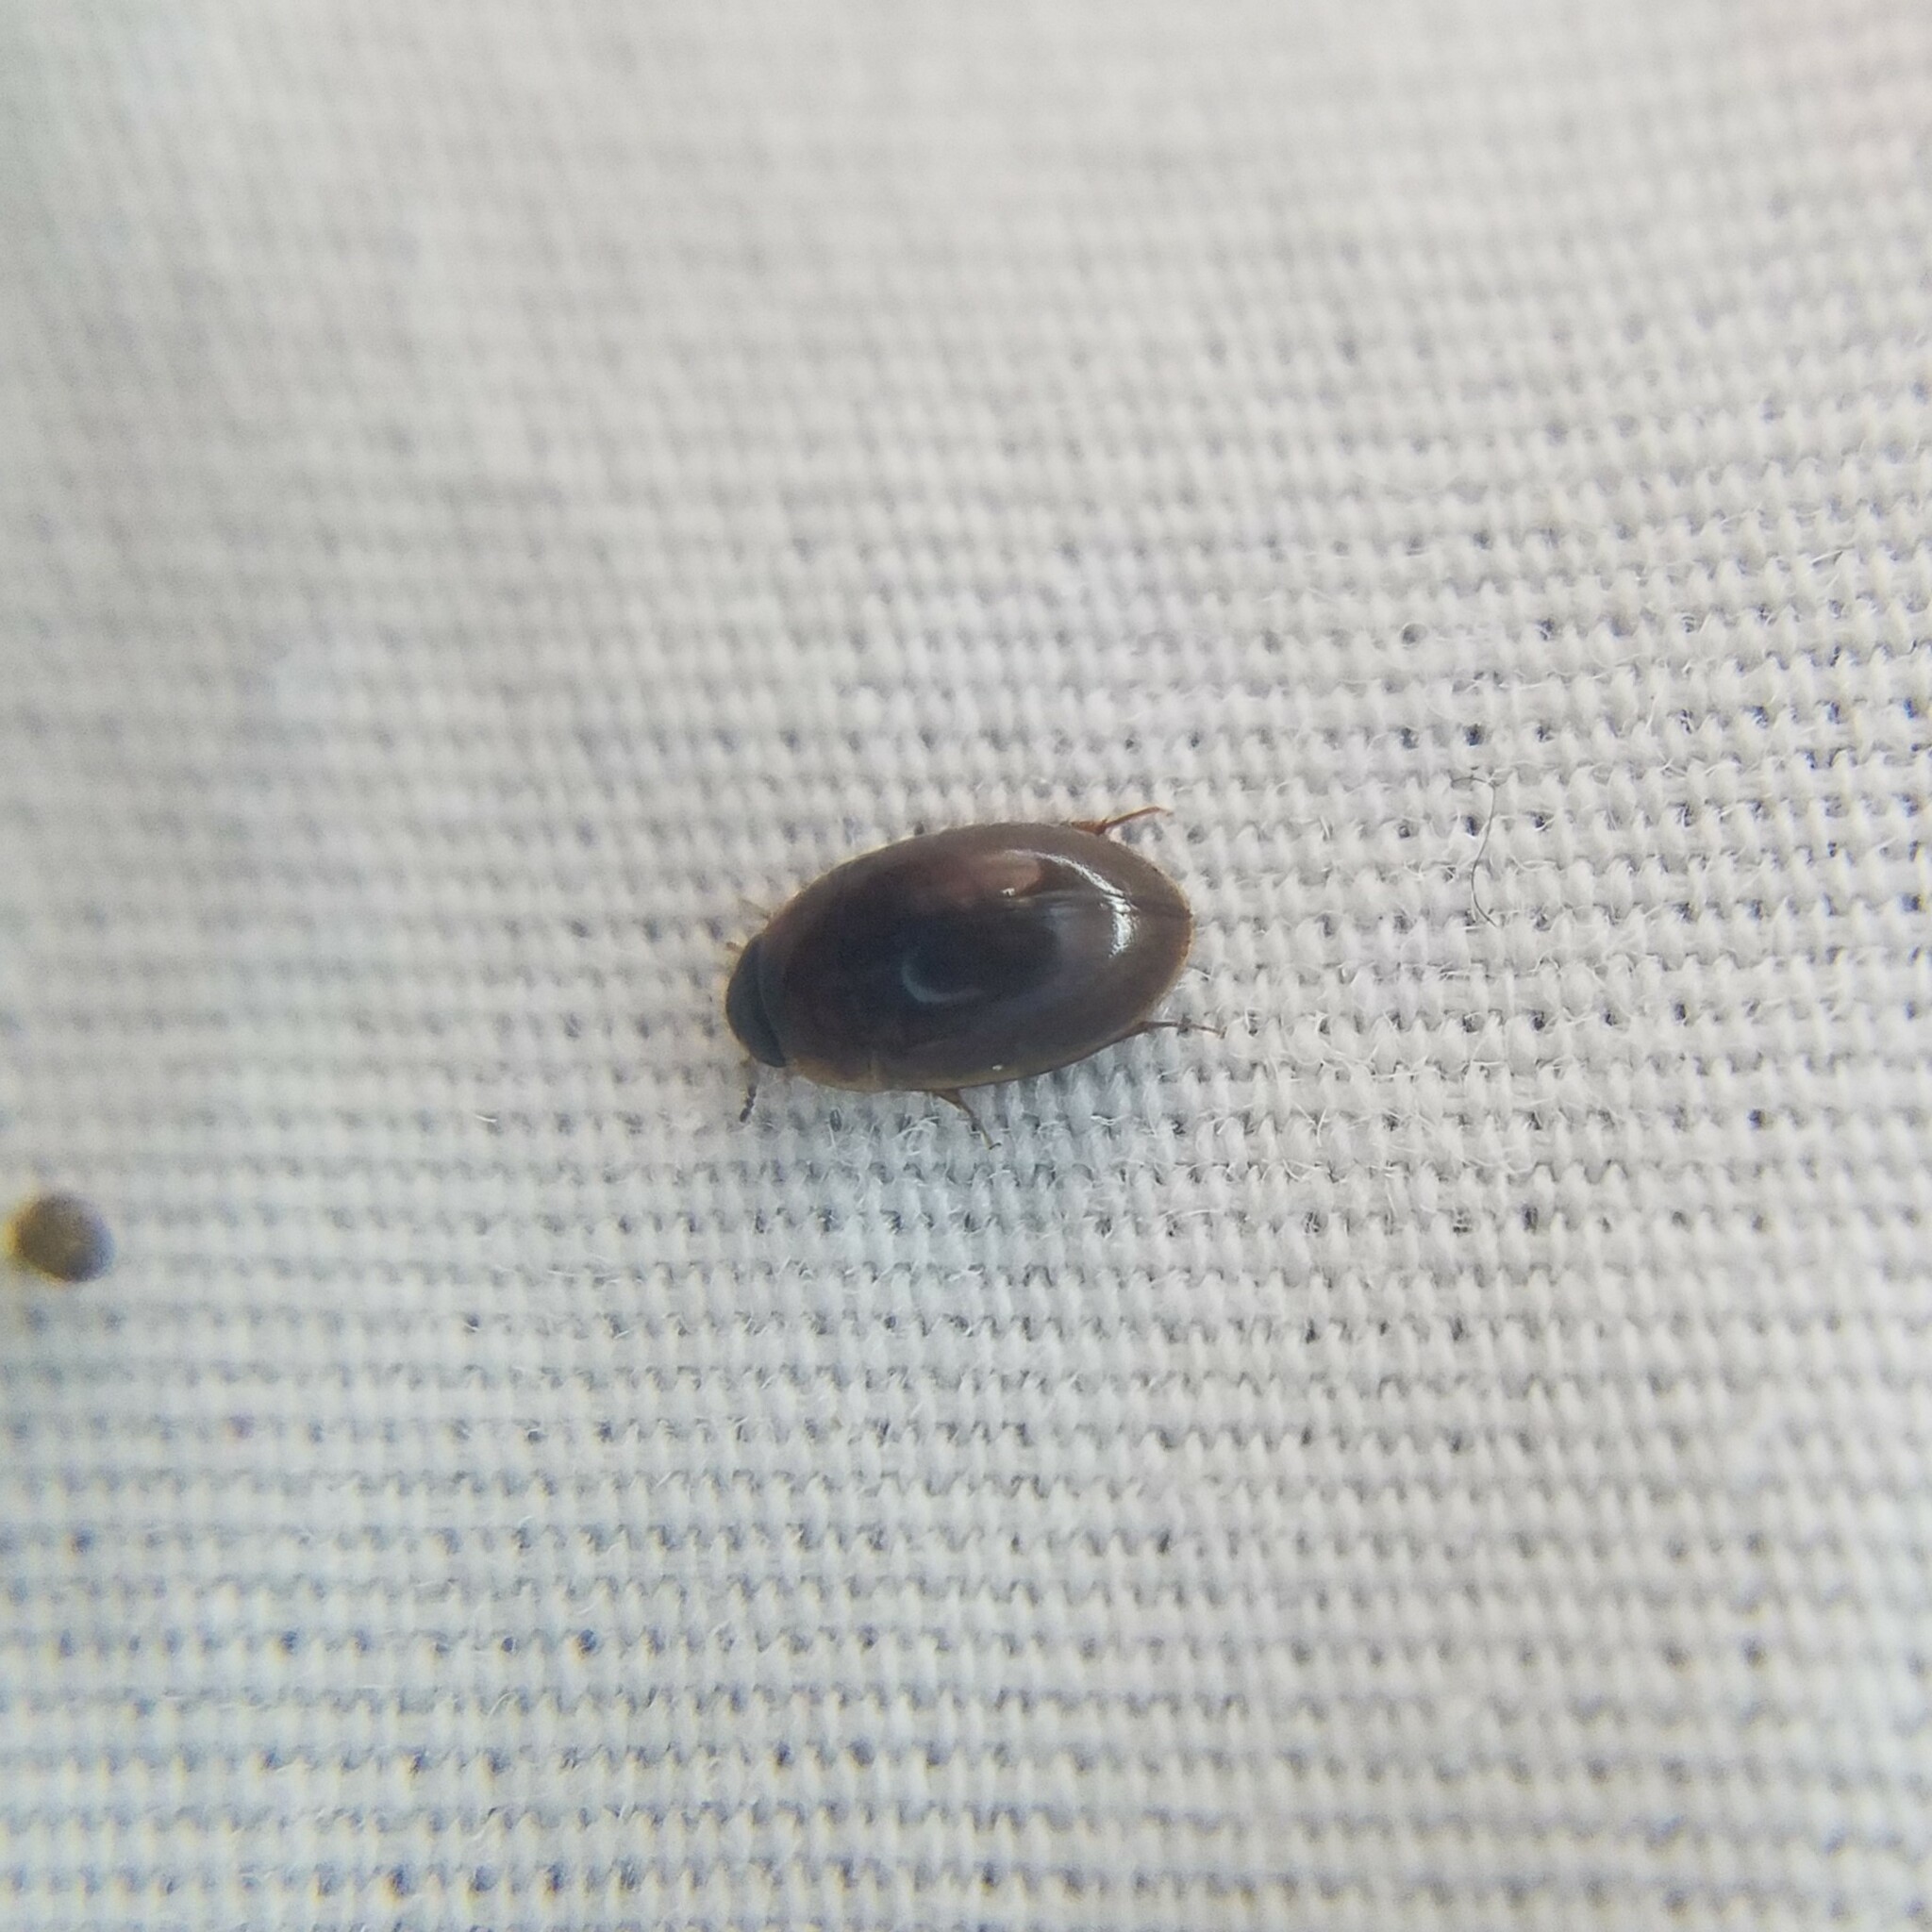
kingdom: Animalia
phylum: Arthropoda
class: Insecta
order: Coleoptera
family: Hydrophilidae
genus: Enochrus
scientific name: Enochrus
